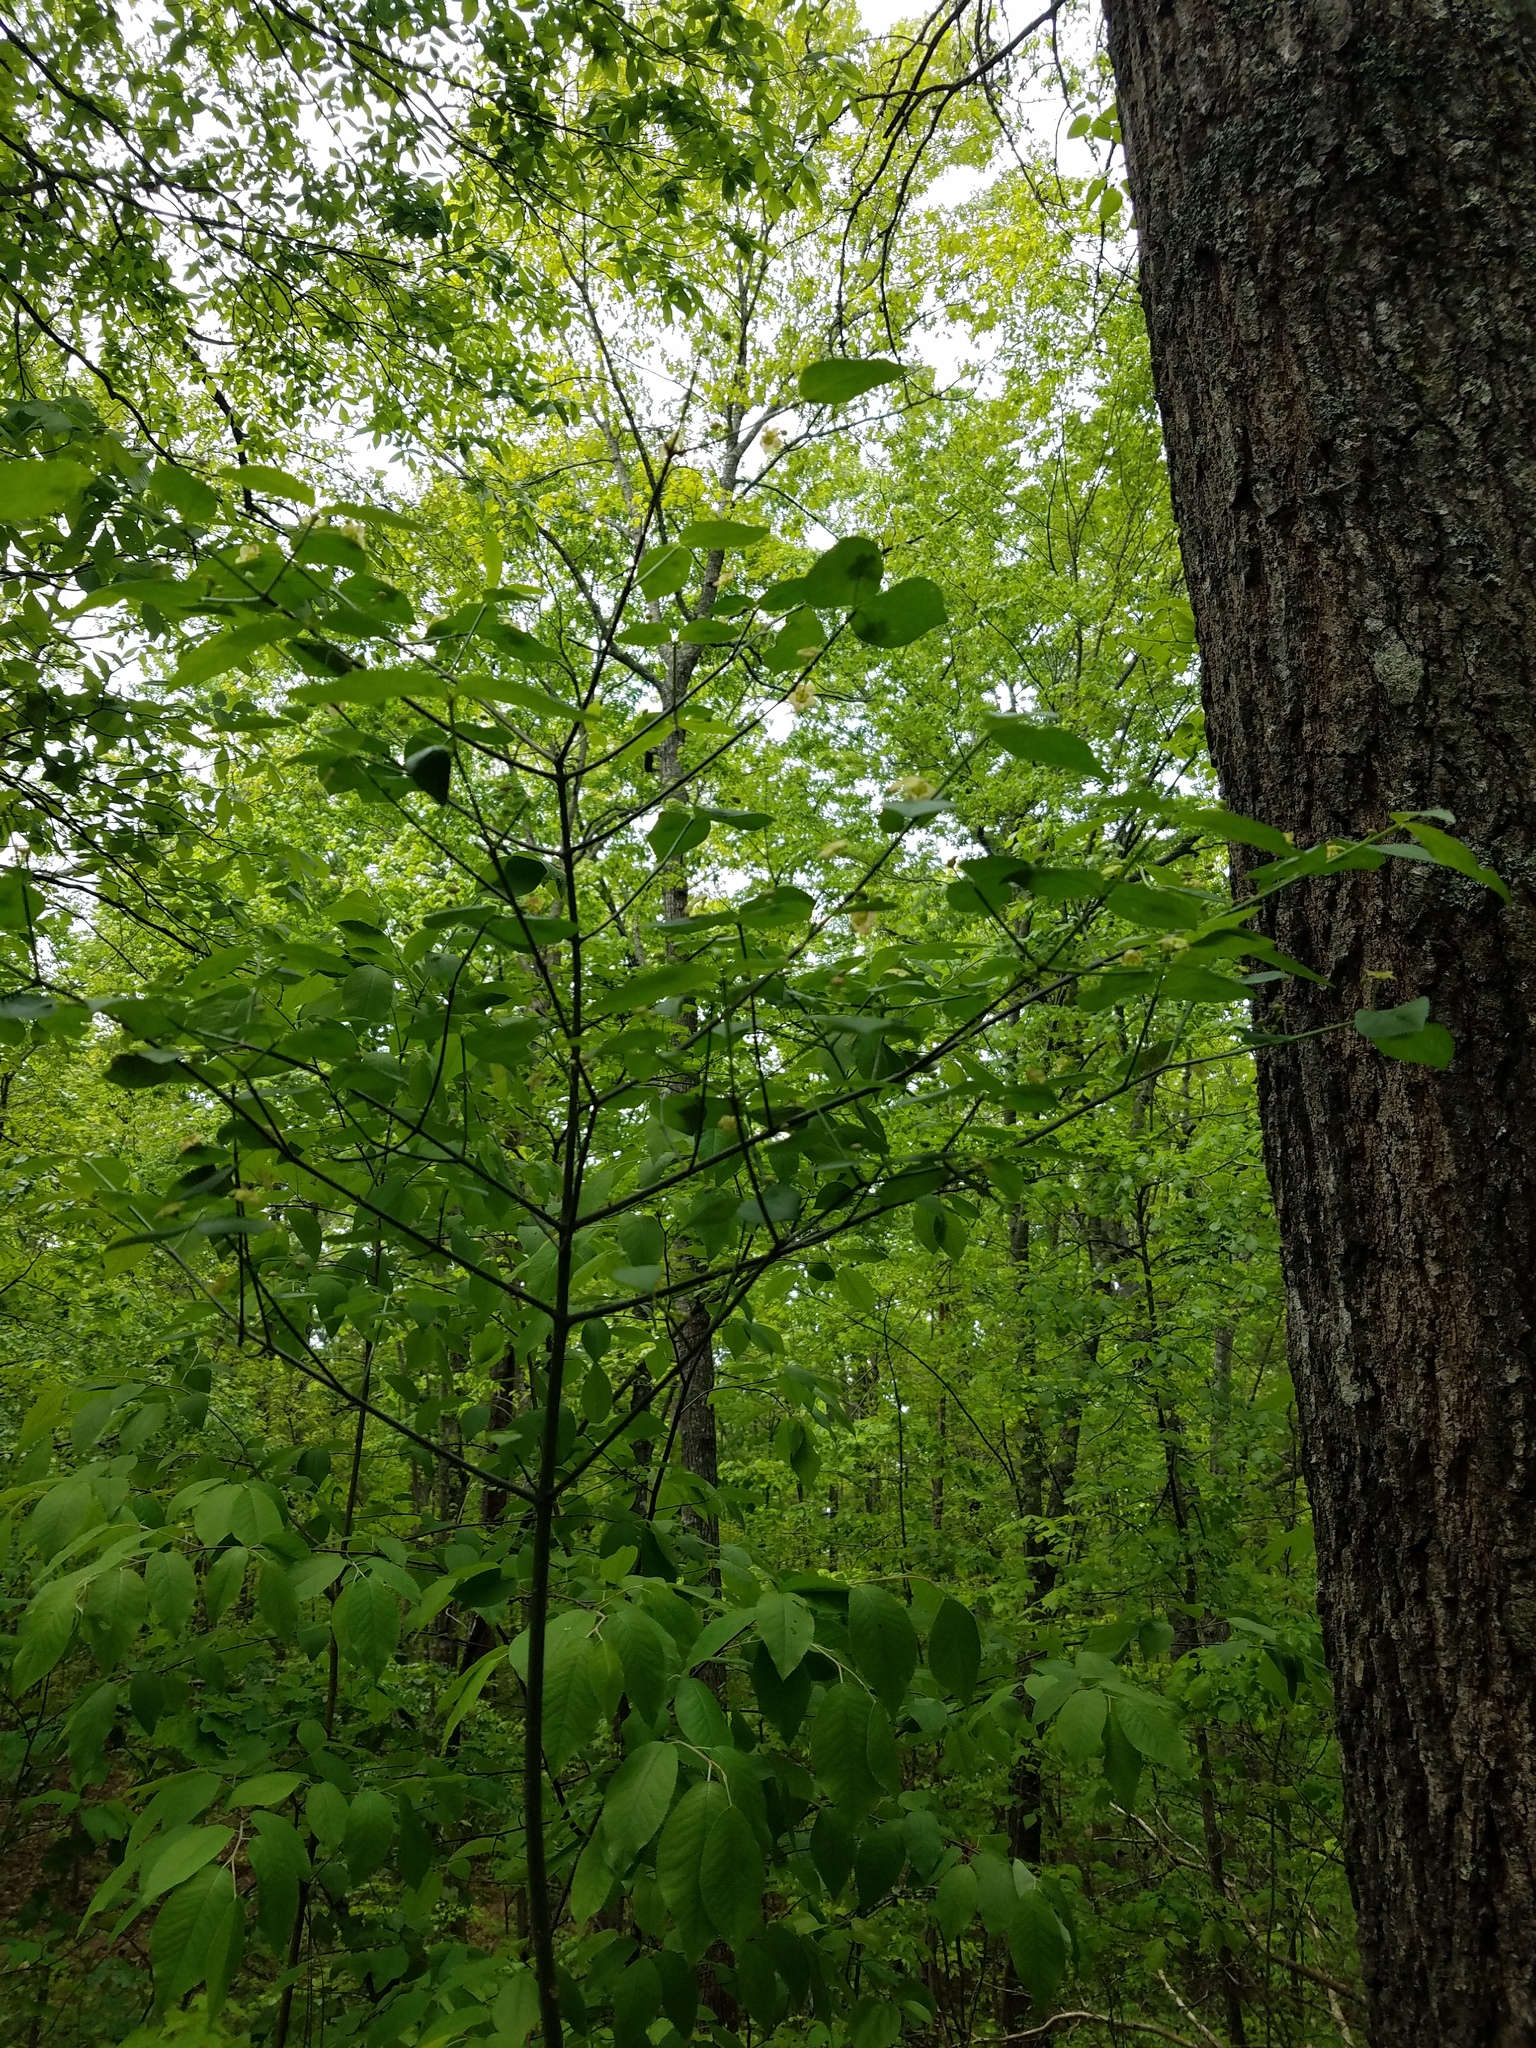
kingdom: Plantae
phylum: Tracheophyta
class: Magnoliopsida
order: Celastrales
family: Celastraceae
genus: Euonymus
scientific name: Euonymus americanus
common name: Bursting-heart
